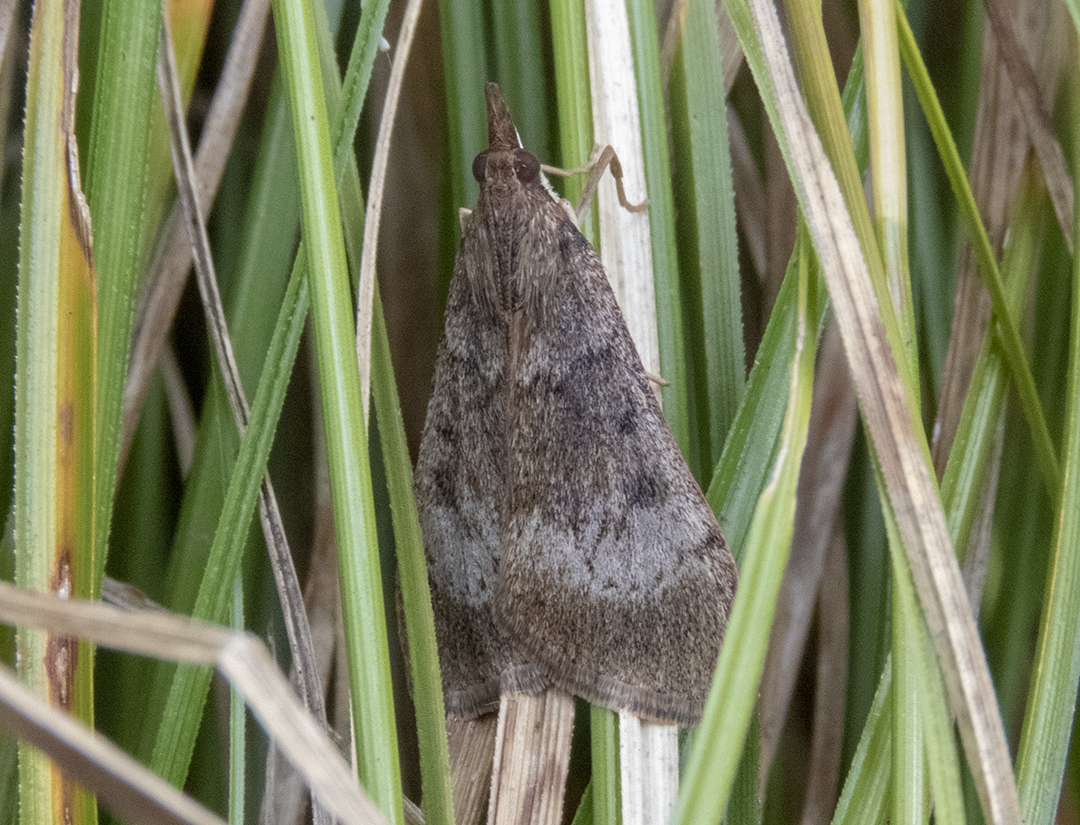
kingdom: Animalia
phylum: Arthropoda
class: Insecta
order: Lepidoptera
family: Crambidae
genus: Uresiphita
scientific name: Uresiphita
